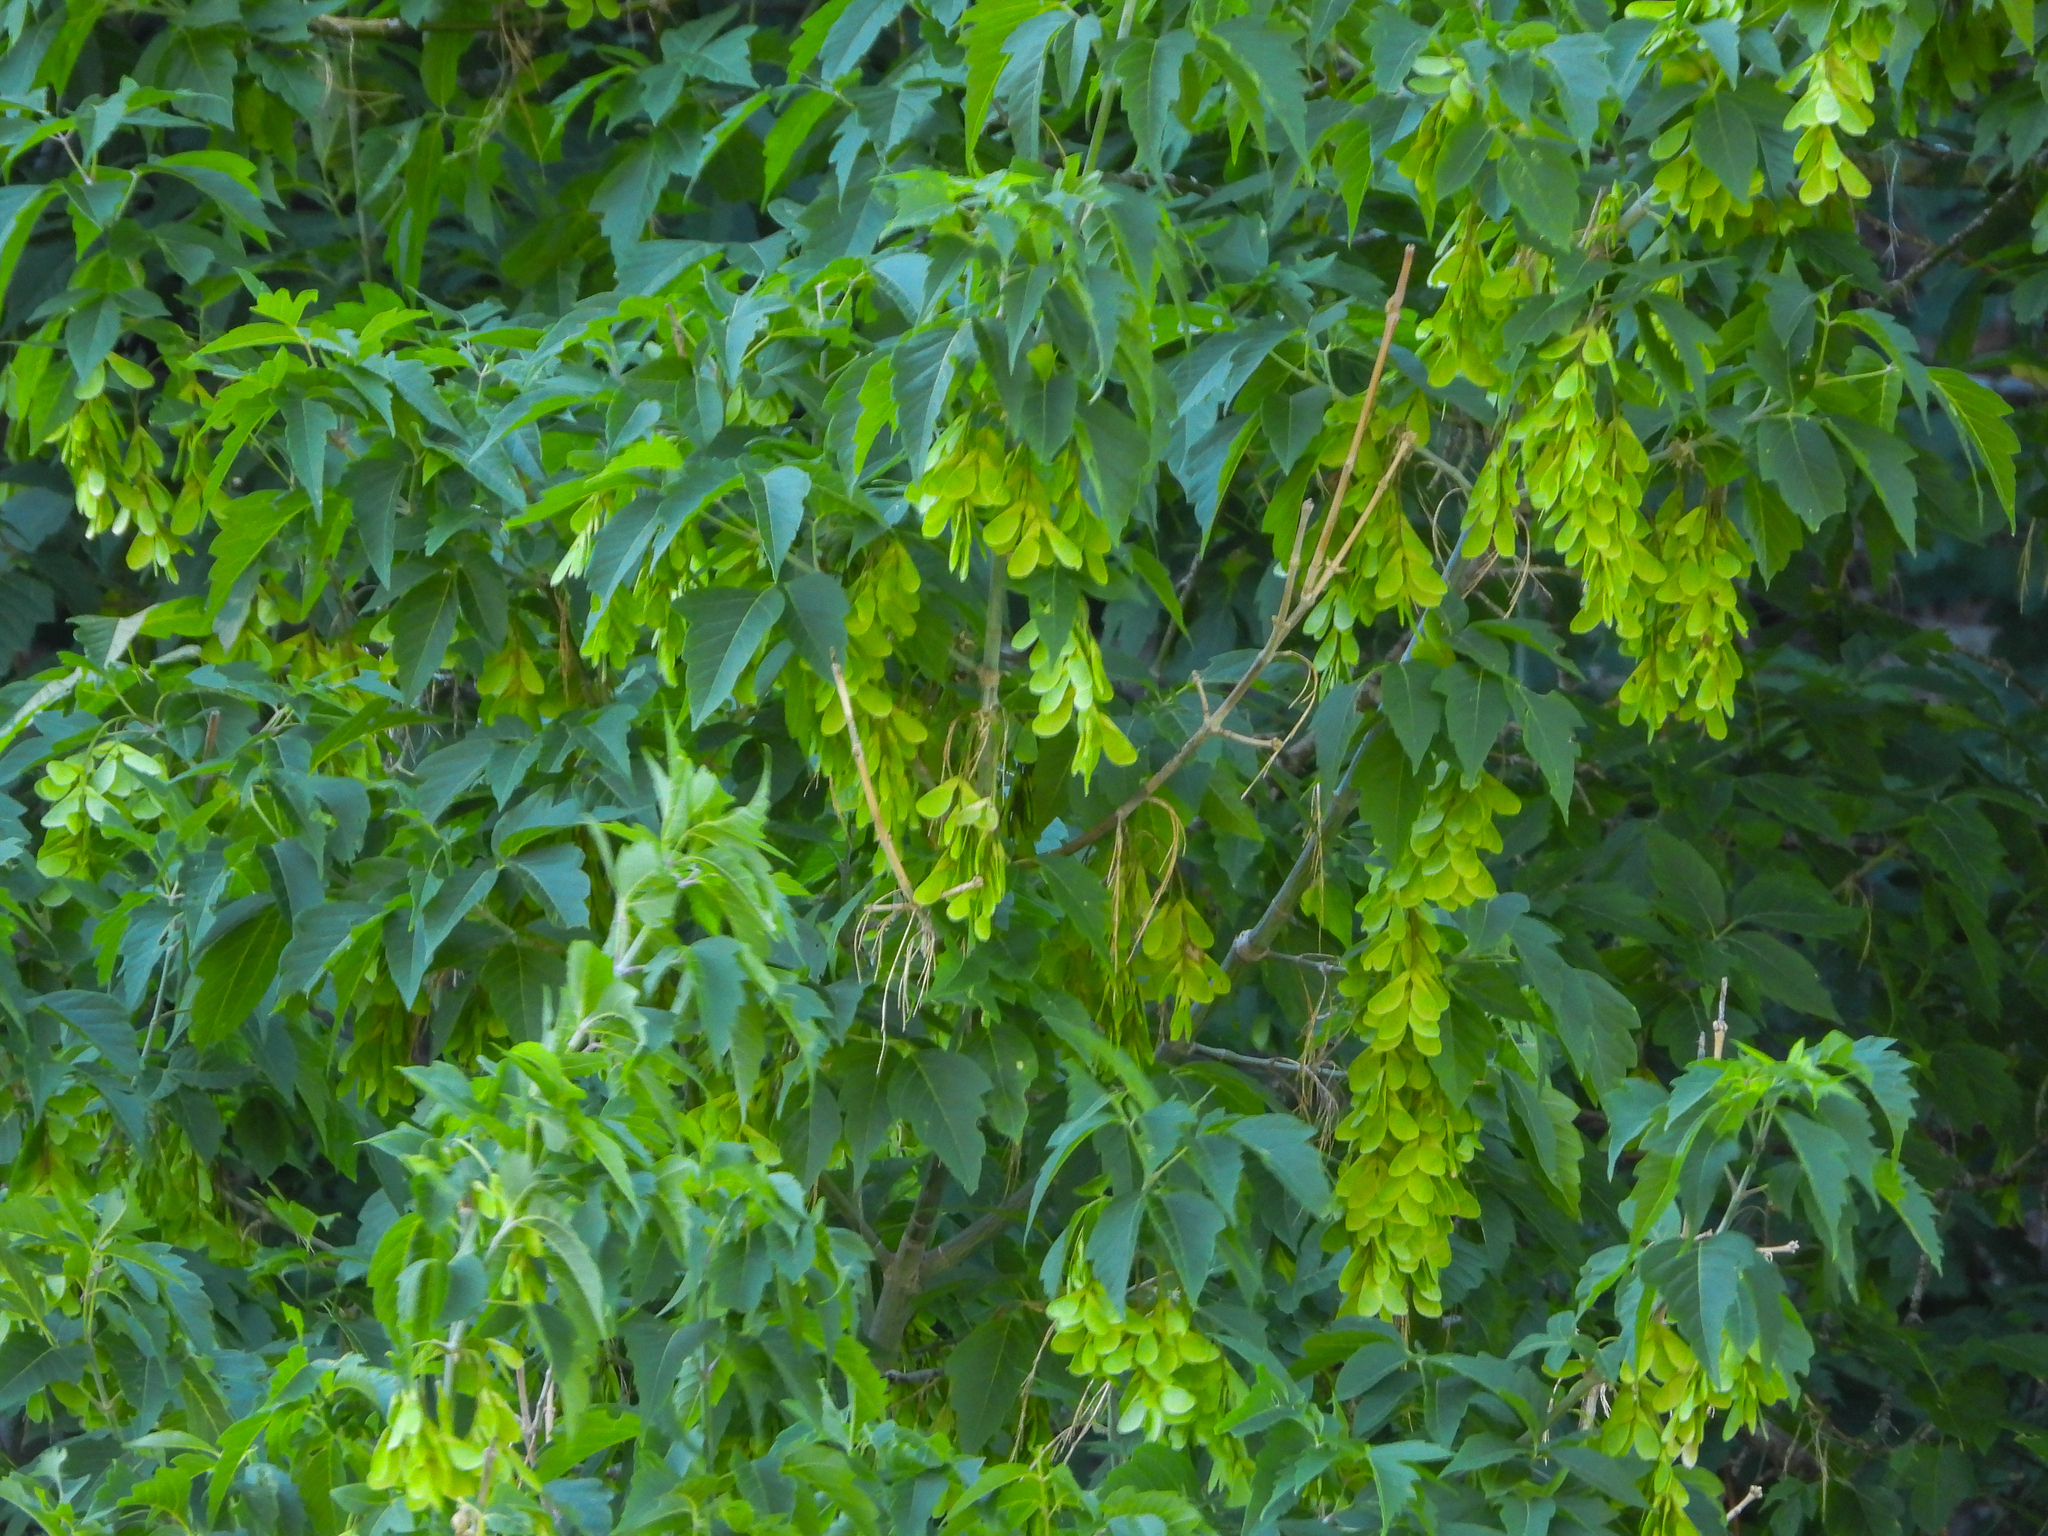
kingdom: Plantae
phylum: Tracheophyta
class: Magnoliopsida
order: Sapindales
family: Sapindaceae
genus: Acer
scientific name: Acer negundo
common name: Ashleaf maple
